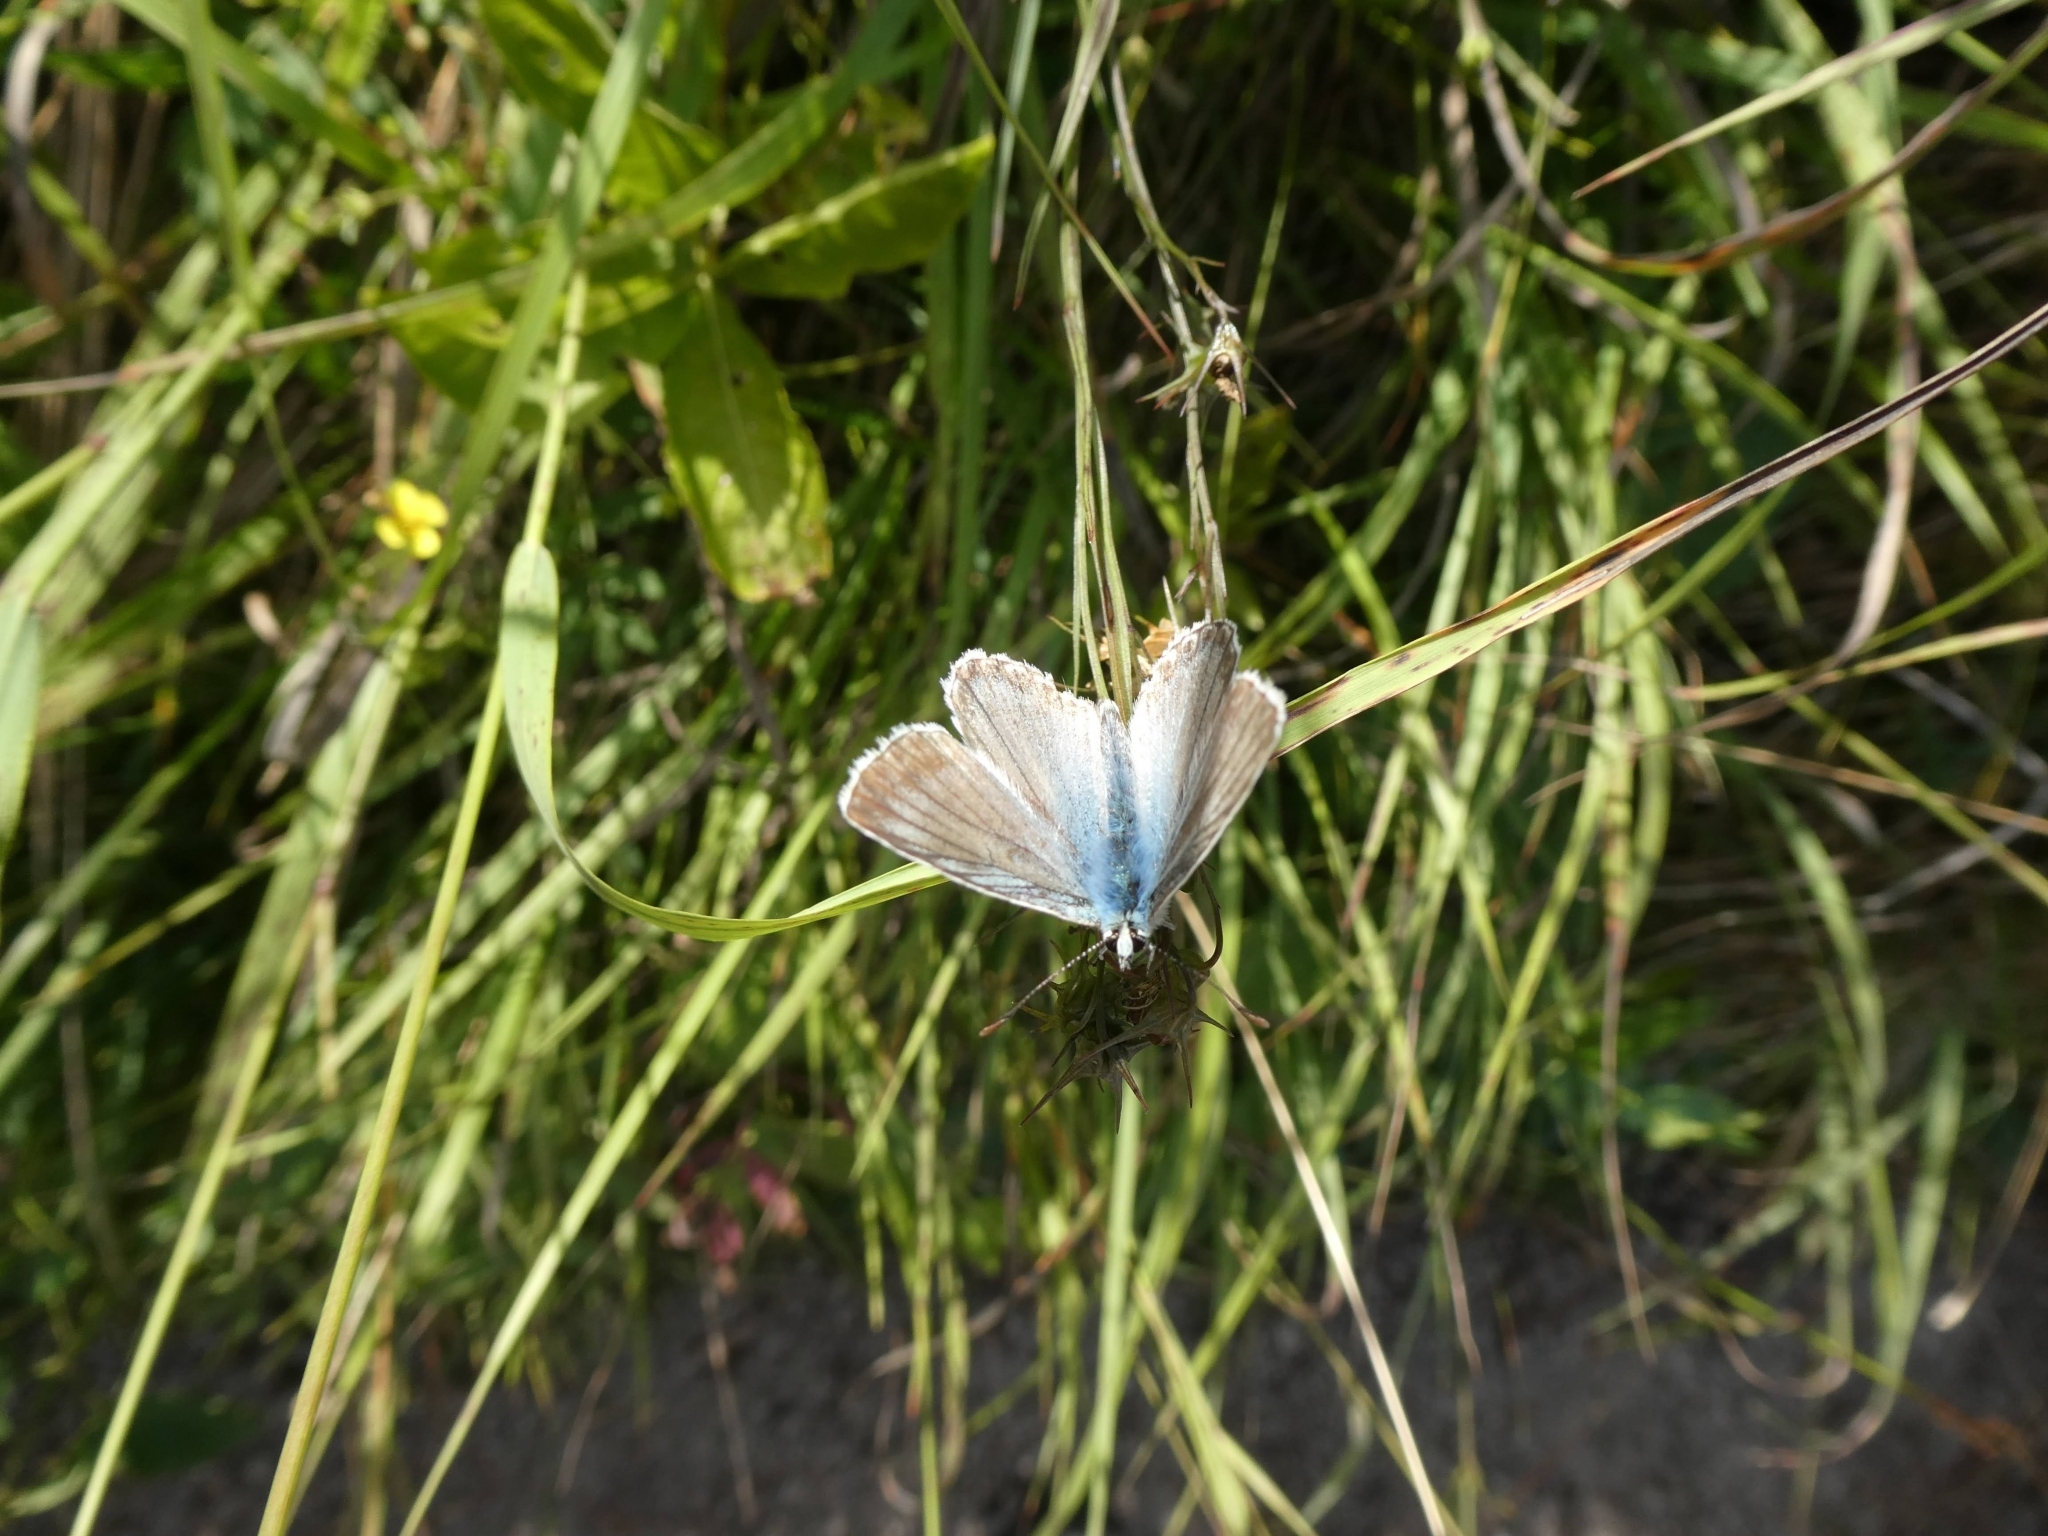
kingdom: Animalia
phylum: Arthropoda
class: Insecta
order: Lepidoptera
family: Lycaenidae
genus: Lysandra
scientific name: Lysandra coridon
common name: Chalkhill blue
